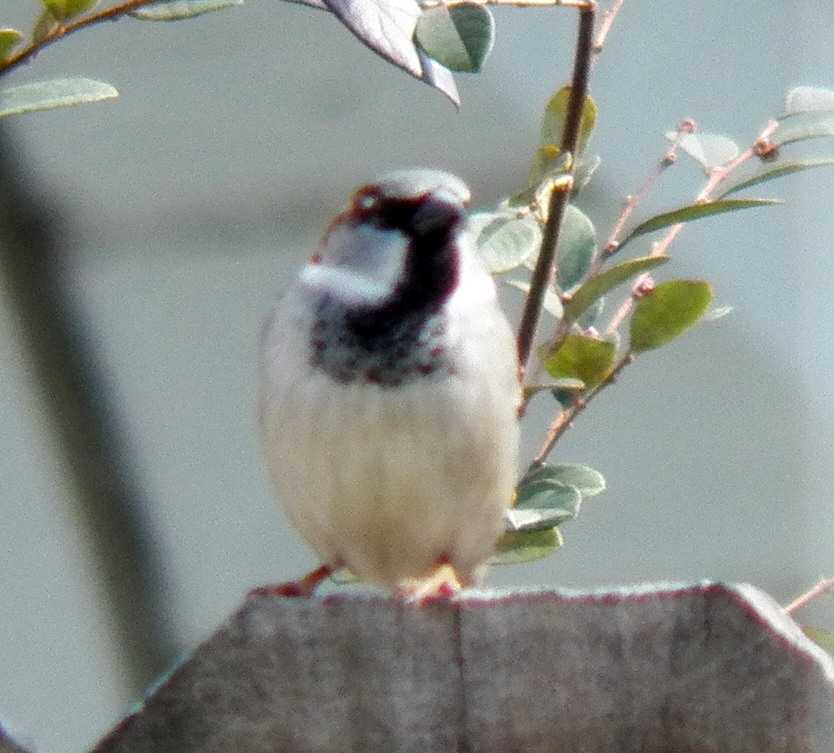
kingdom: Animalia
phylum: Chordata
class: Aves
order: Passeriformes
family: Passeridae
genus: Passer
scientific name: Passer domesticus
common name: House sparrow
